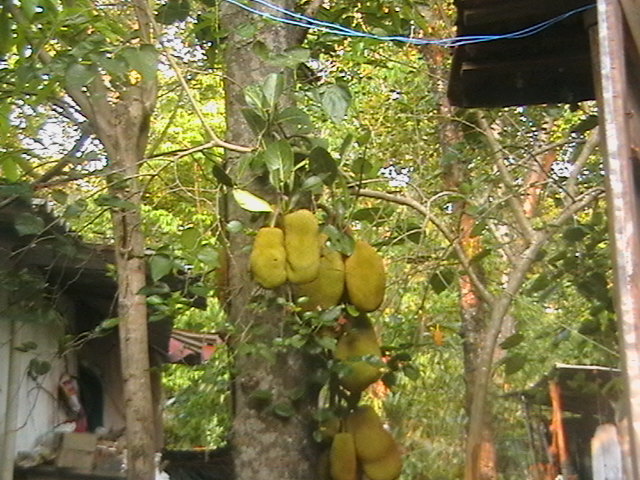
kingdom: Plantae
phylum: Tracheophyta
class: Magnoliopsida
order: Rosales
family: Moraceae
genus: Artocarpus
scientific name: Artocarpus heterophyllus
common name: Jackfruit
